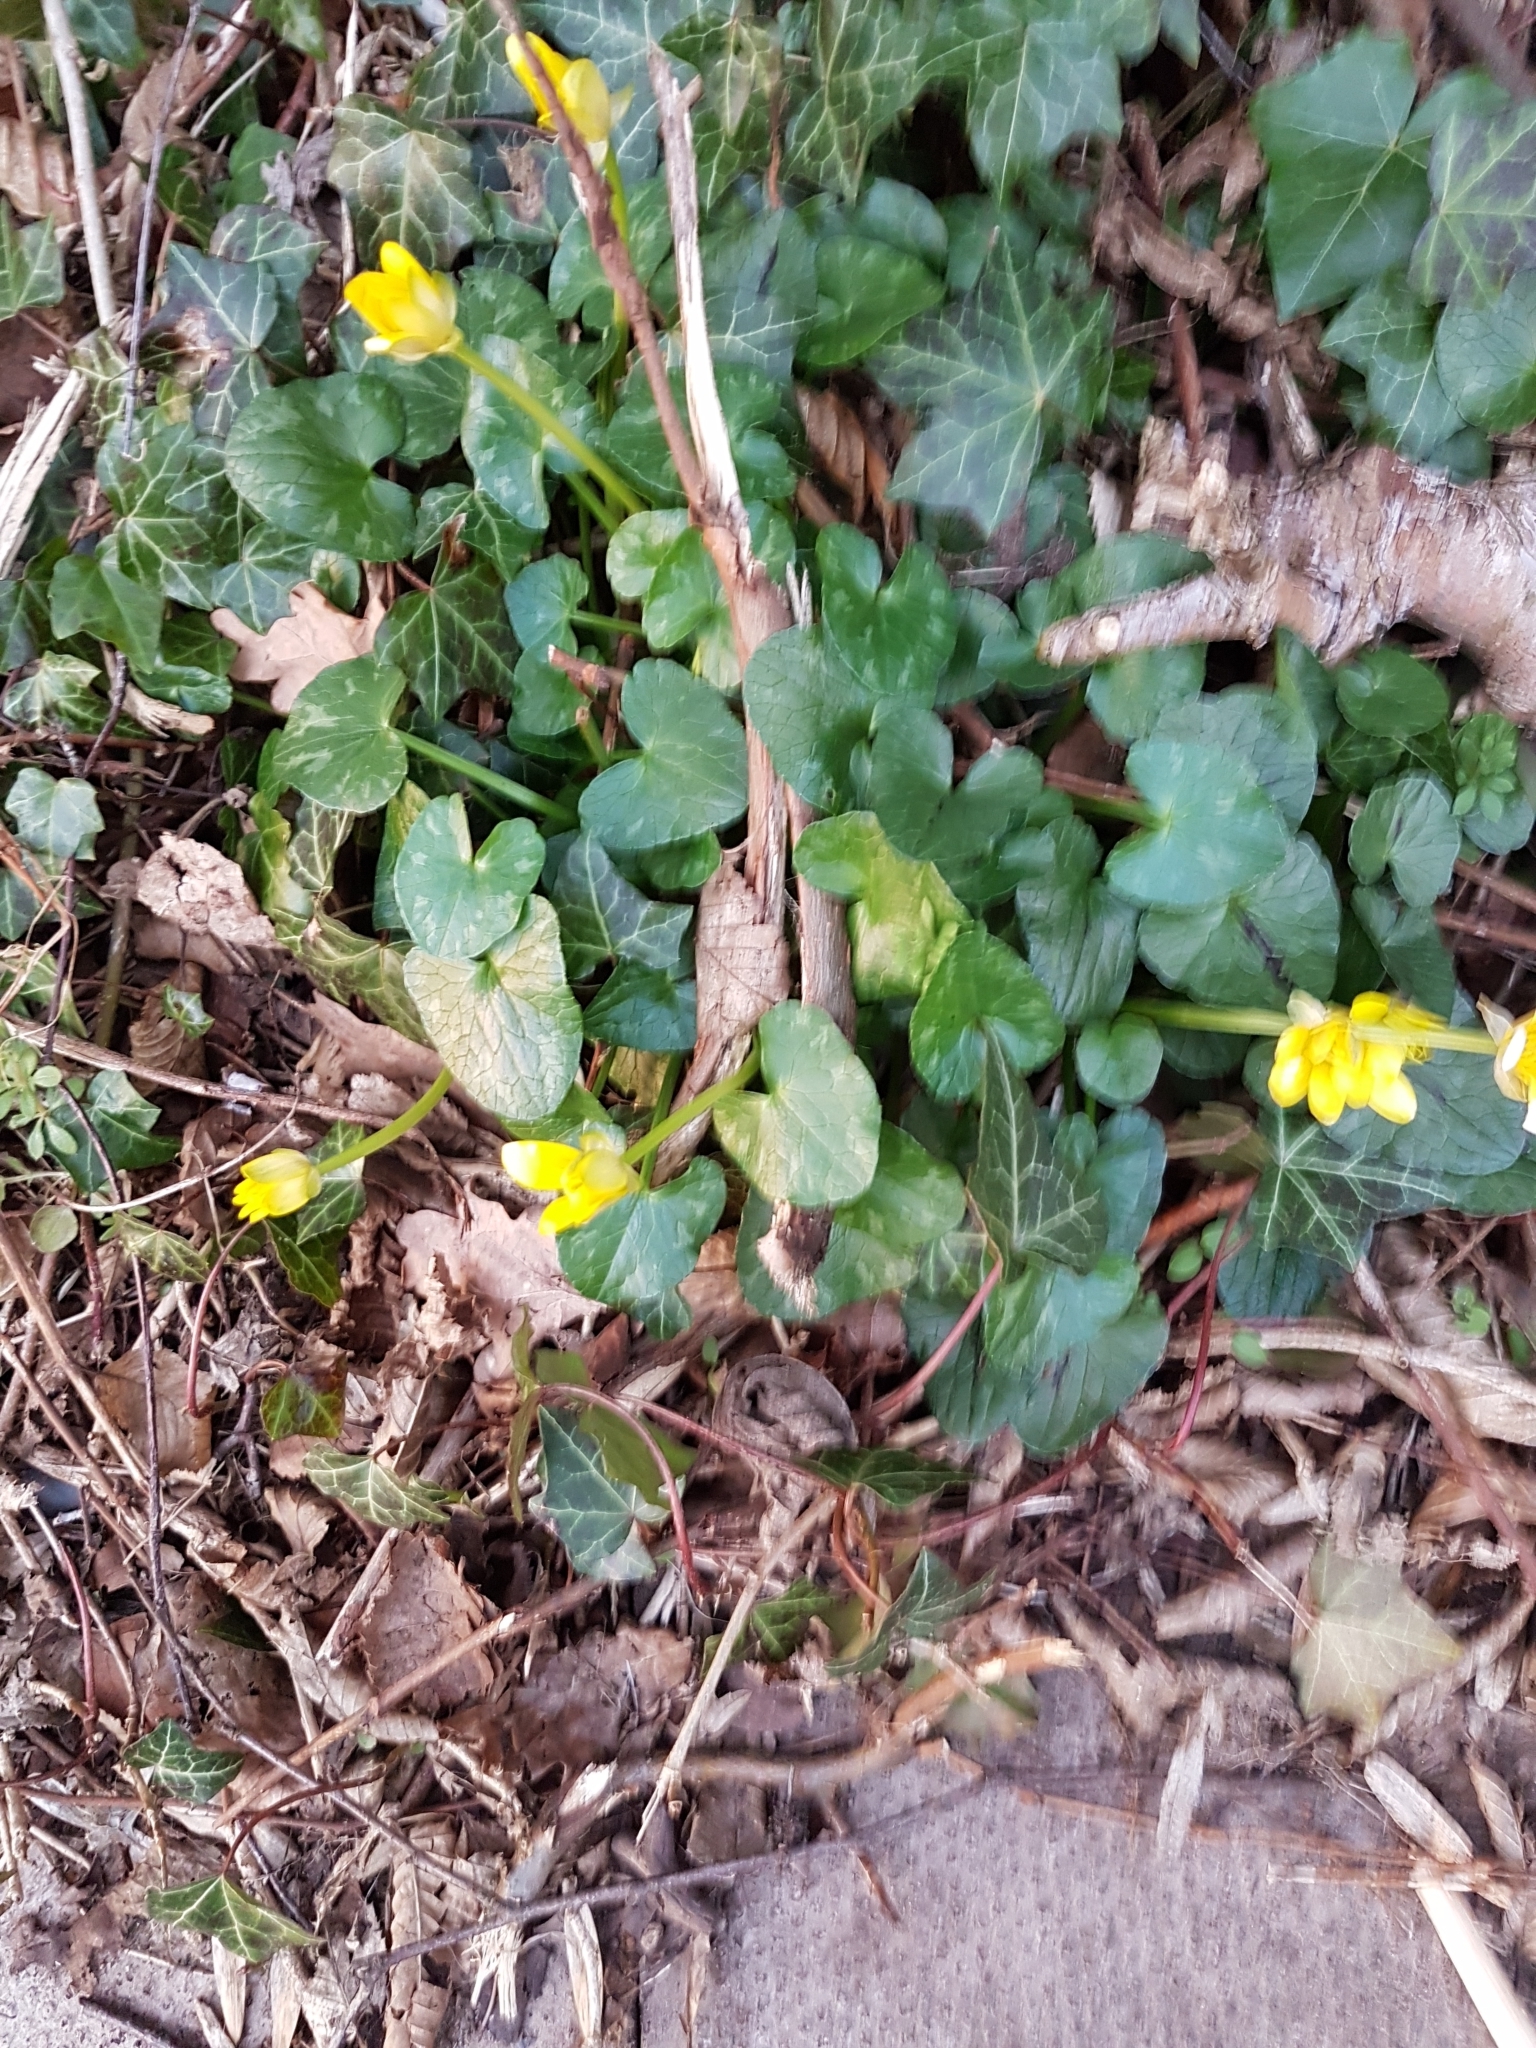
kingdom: Plantae
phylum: Tracheophyta
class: Magnoliopsida
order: Ranunculales
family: Ranunculaceae
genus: Ficaria
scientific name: Ficaria verna
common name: Lesser celandine
